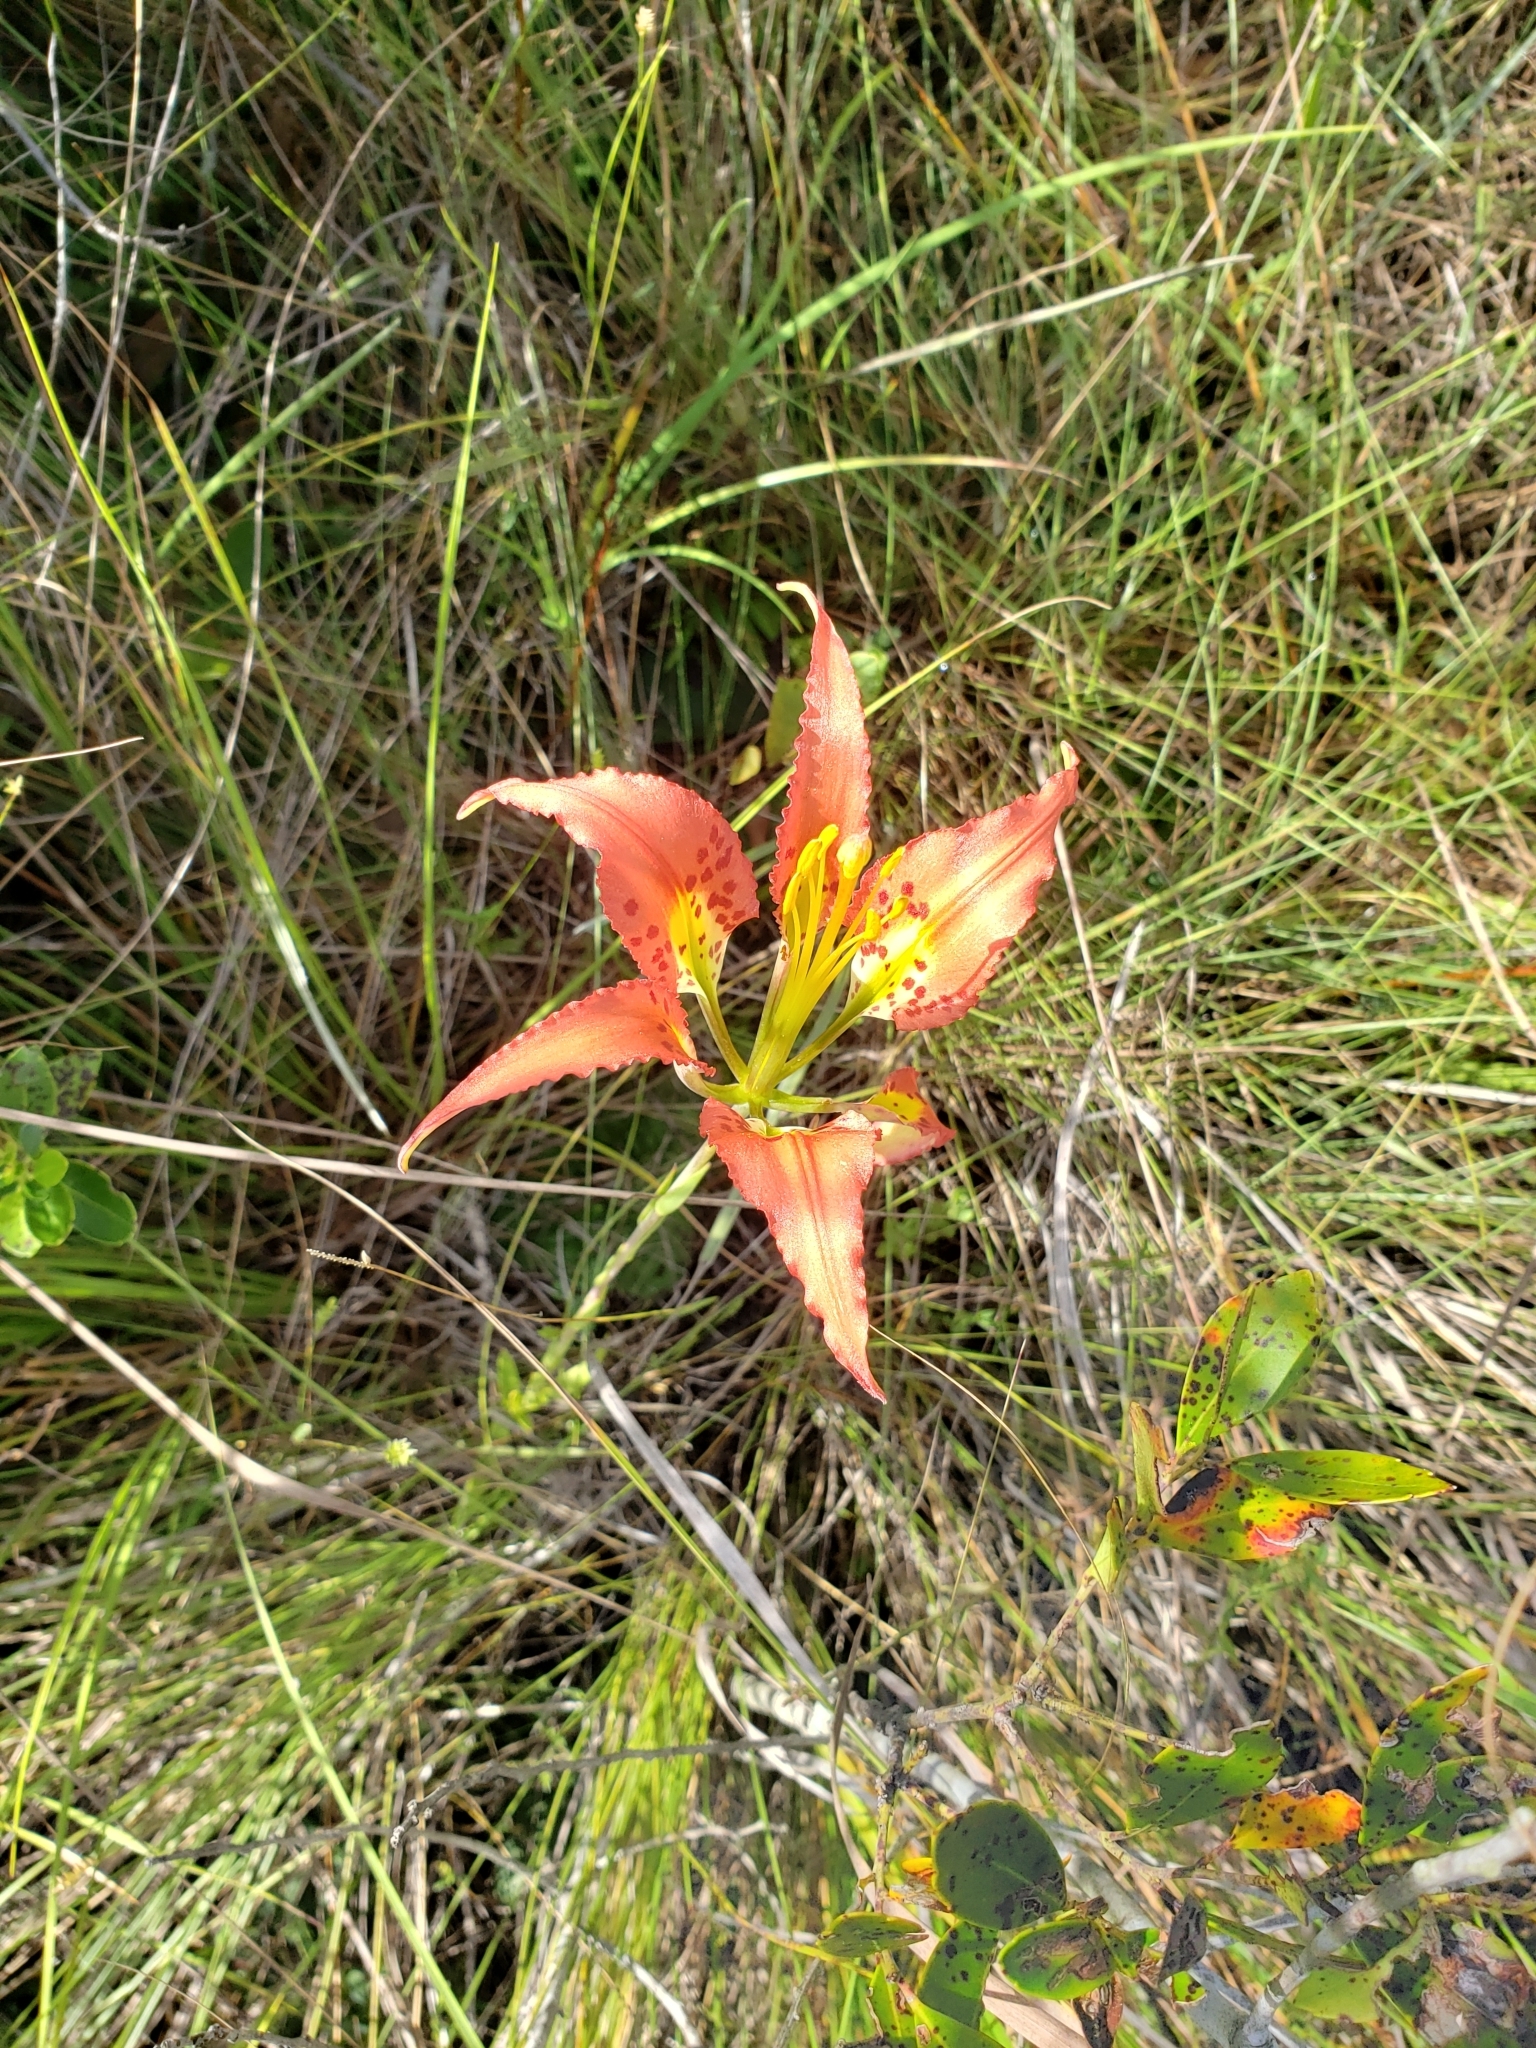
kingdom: Plantae
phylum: Tracheophyta
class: Liliopsida
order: Liliales
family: Liliaceae
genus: Lilium
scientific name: Lilium catesbaei
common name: Catesby's lily
